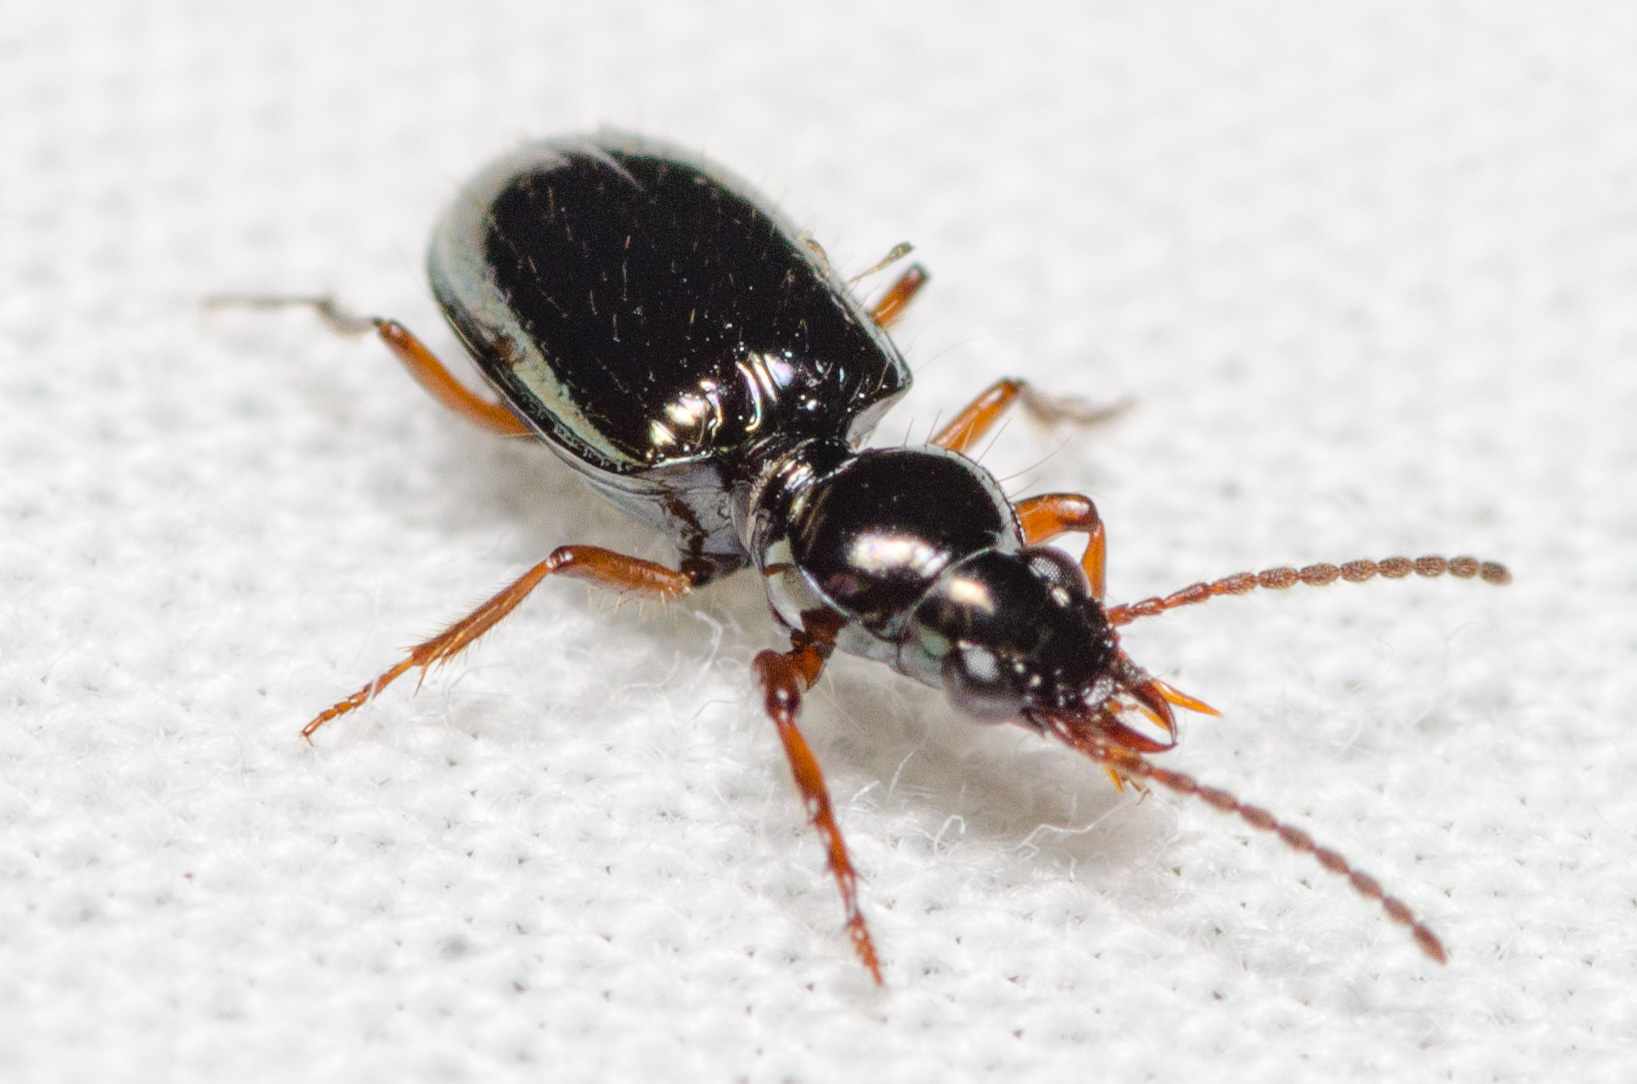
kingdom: Animalia
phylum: Arthropoda
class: Insecta
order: Coleoptera
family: Carabidae
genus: Semiardistomis
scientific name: Semiardistomis viridis
